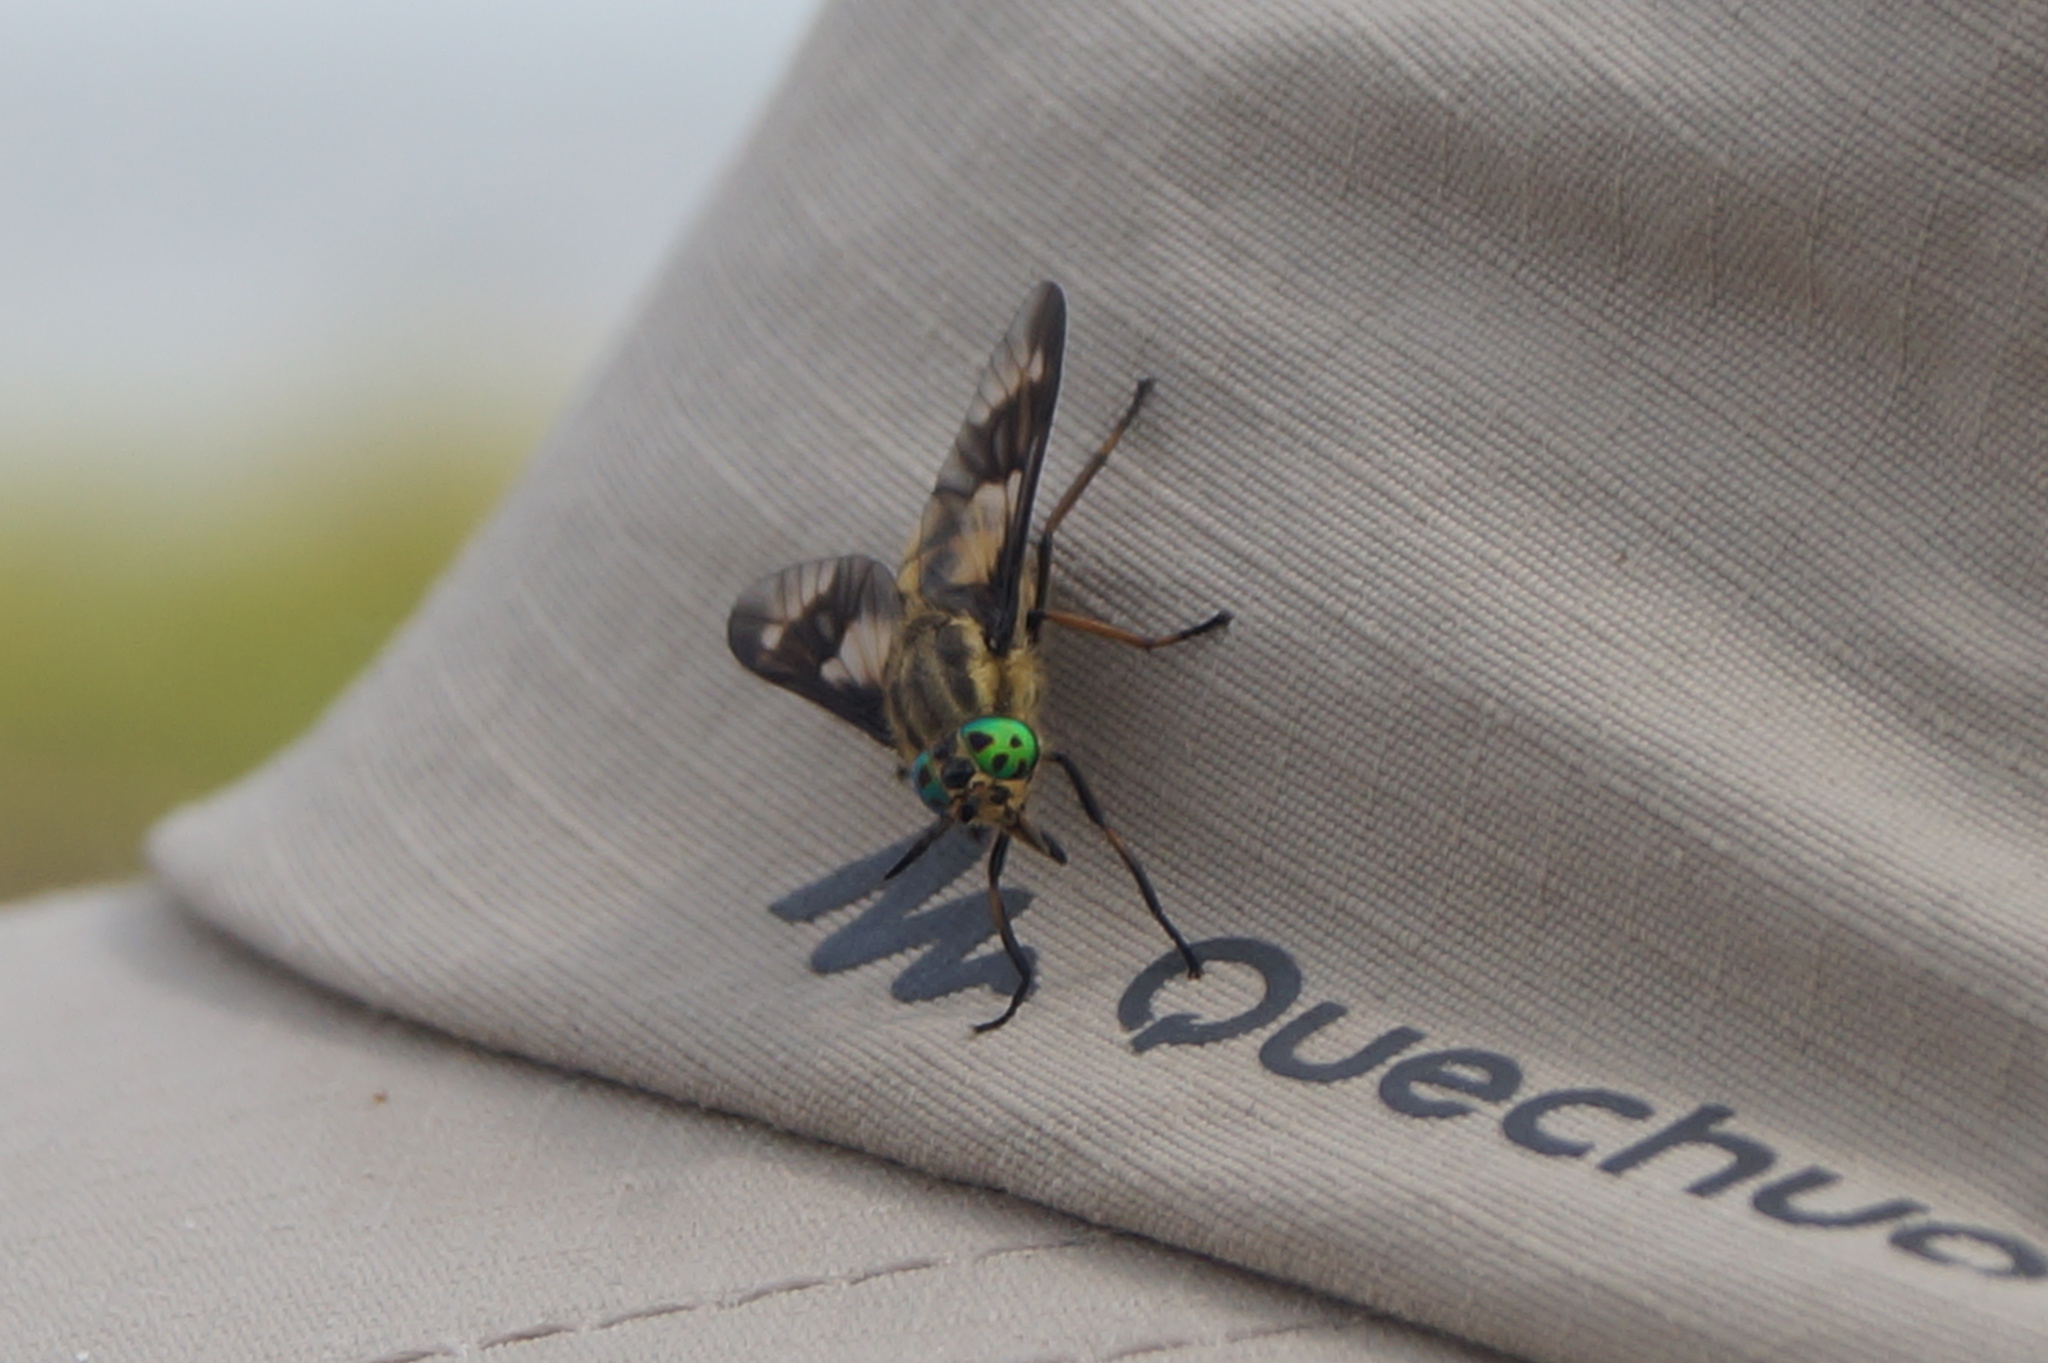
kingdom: Animalia
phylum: Arthropoda
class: Insecta
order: Diptera
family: Tabanidae
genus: Chrysops
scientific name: Chrysops relictus
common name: Twin-lobed deerfly
